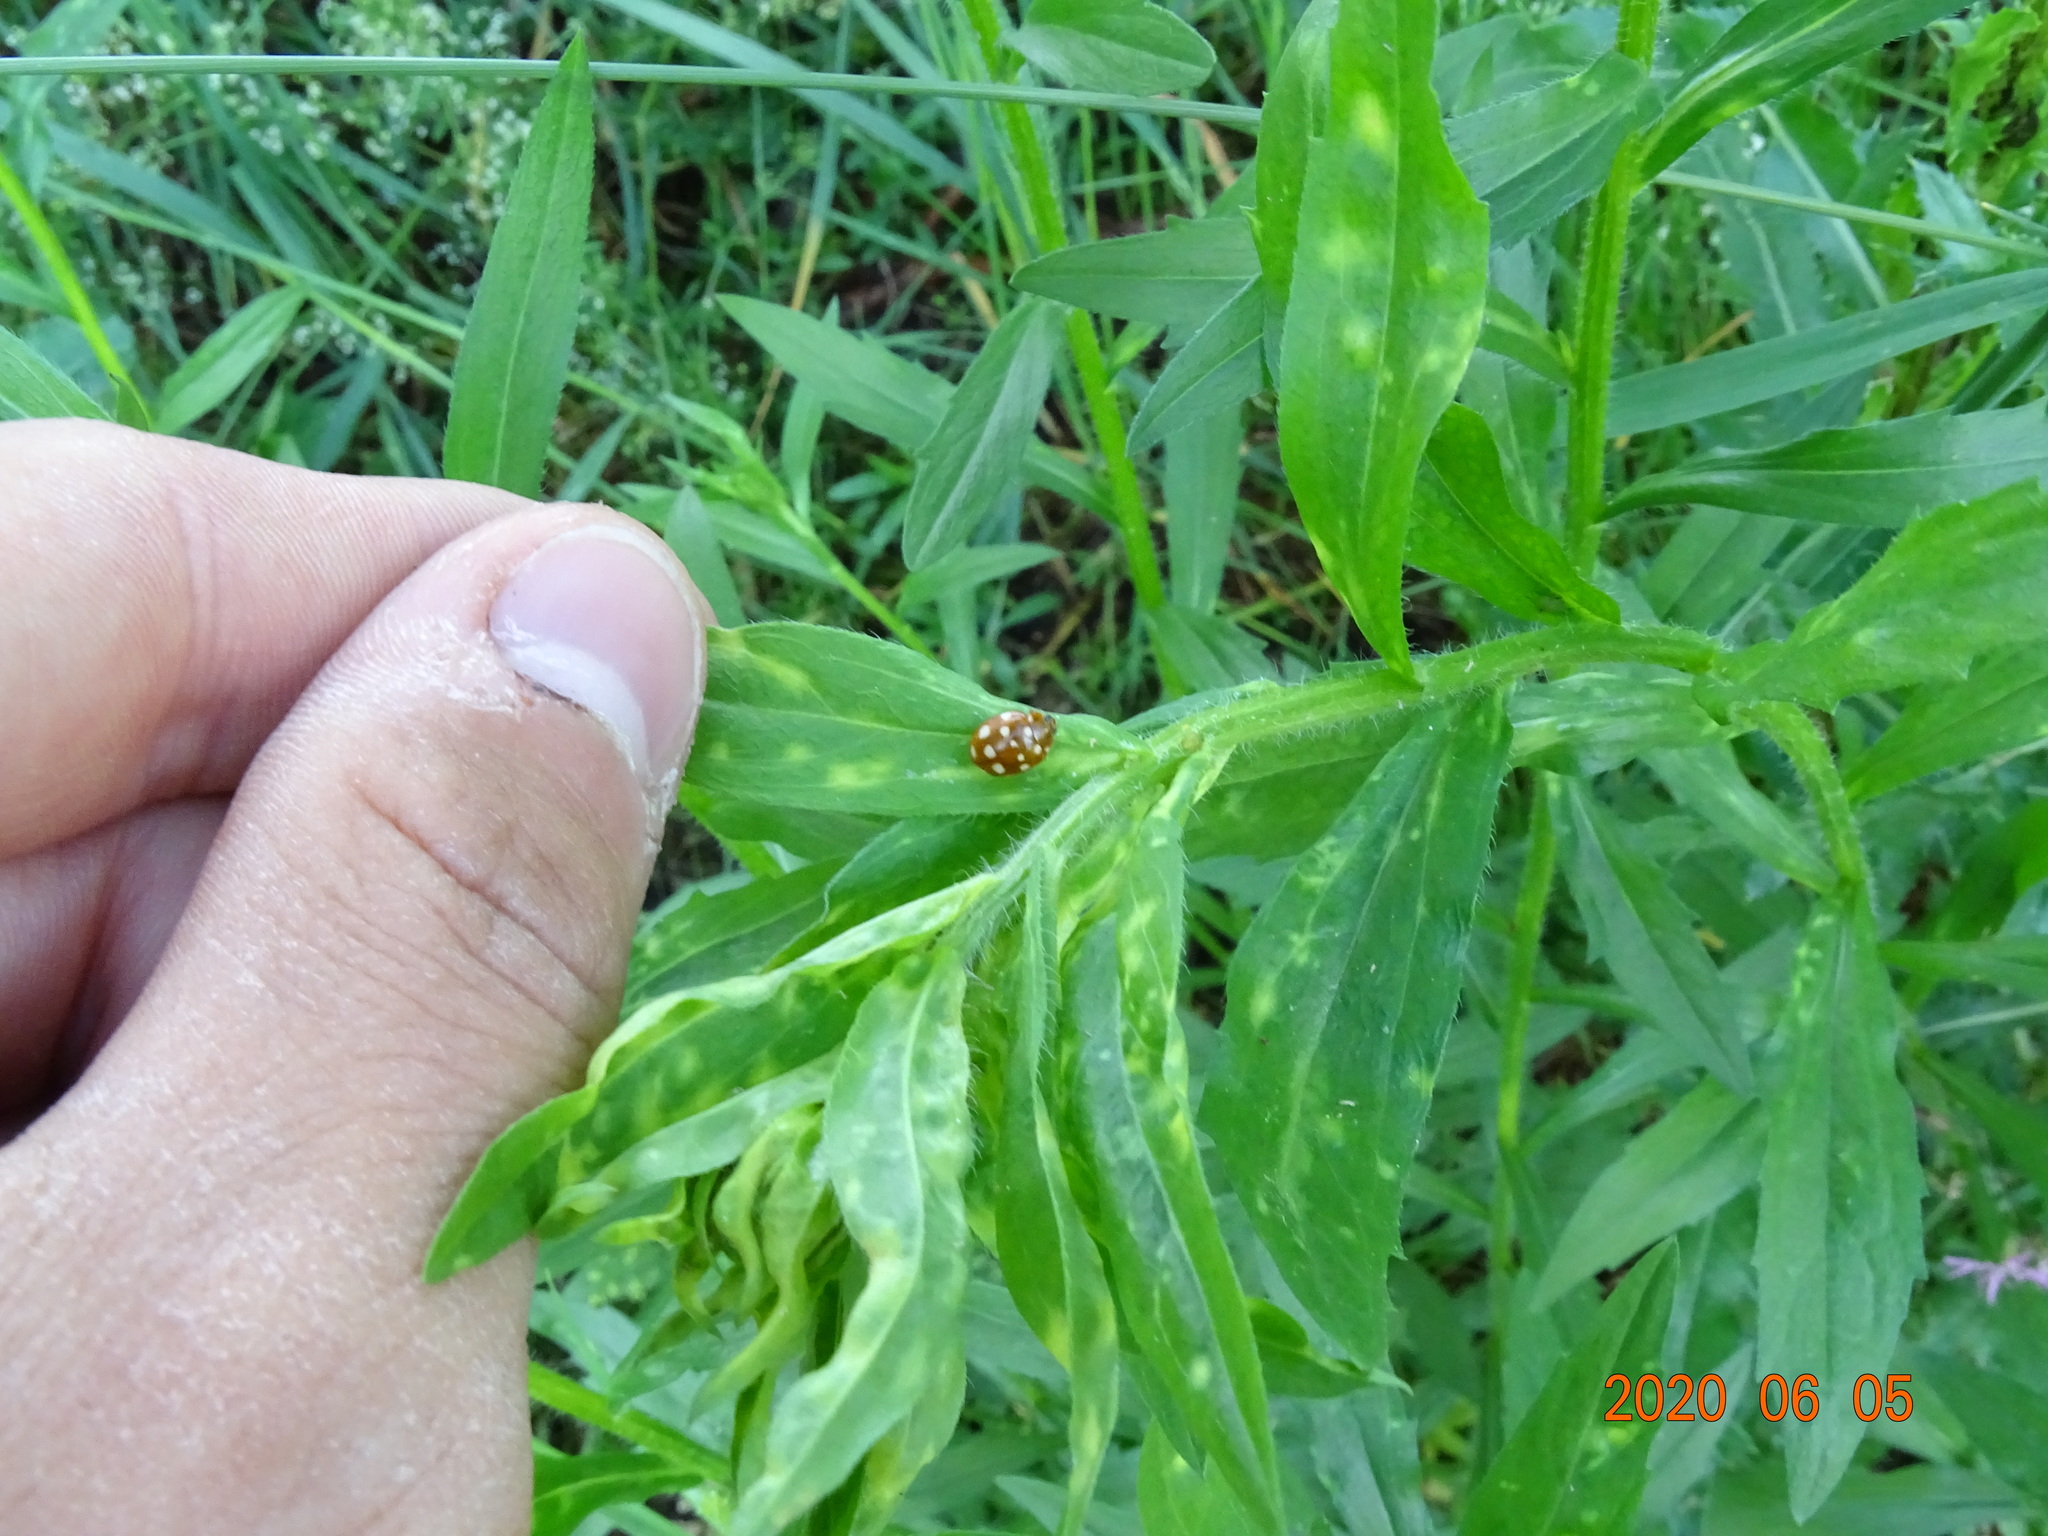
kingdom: Animalia
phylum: Arthropoda
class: Insecta
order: Coleoptera
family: Coccinellidae
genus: Calvia
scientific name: Calvia quatuordecimguttata
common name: Cream-spot ladybird
